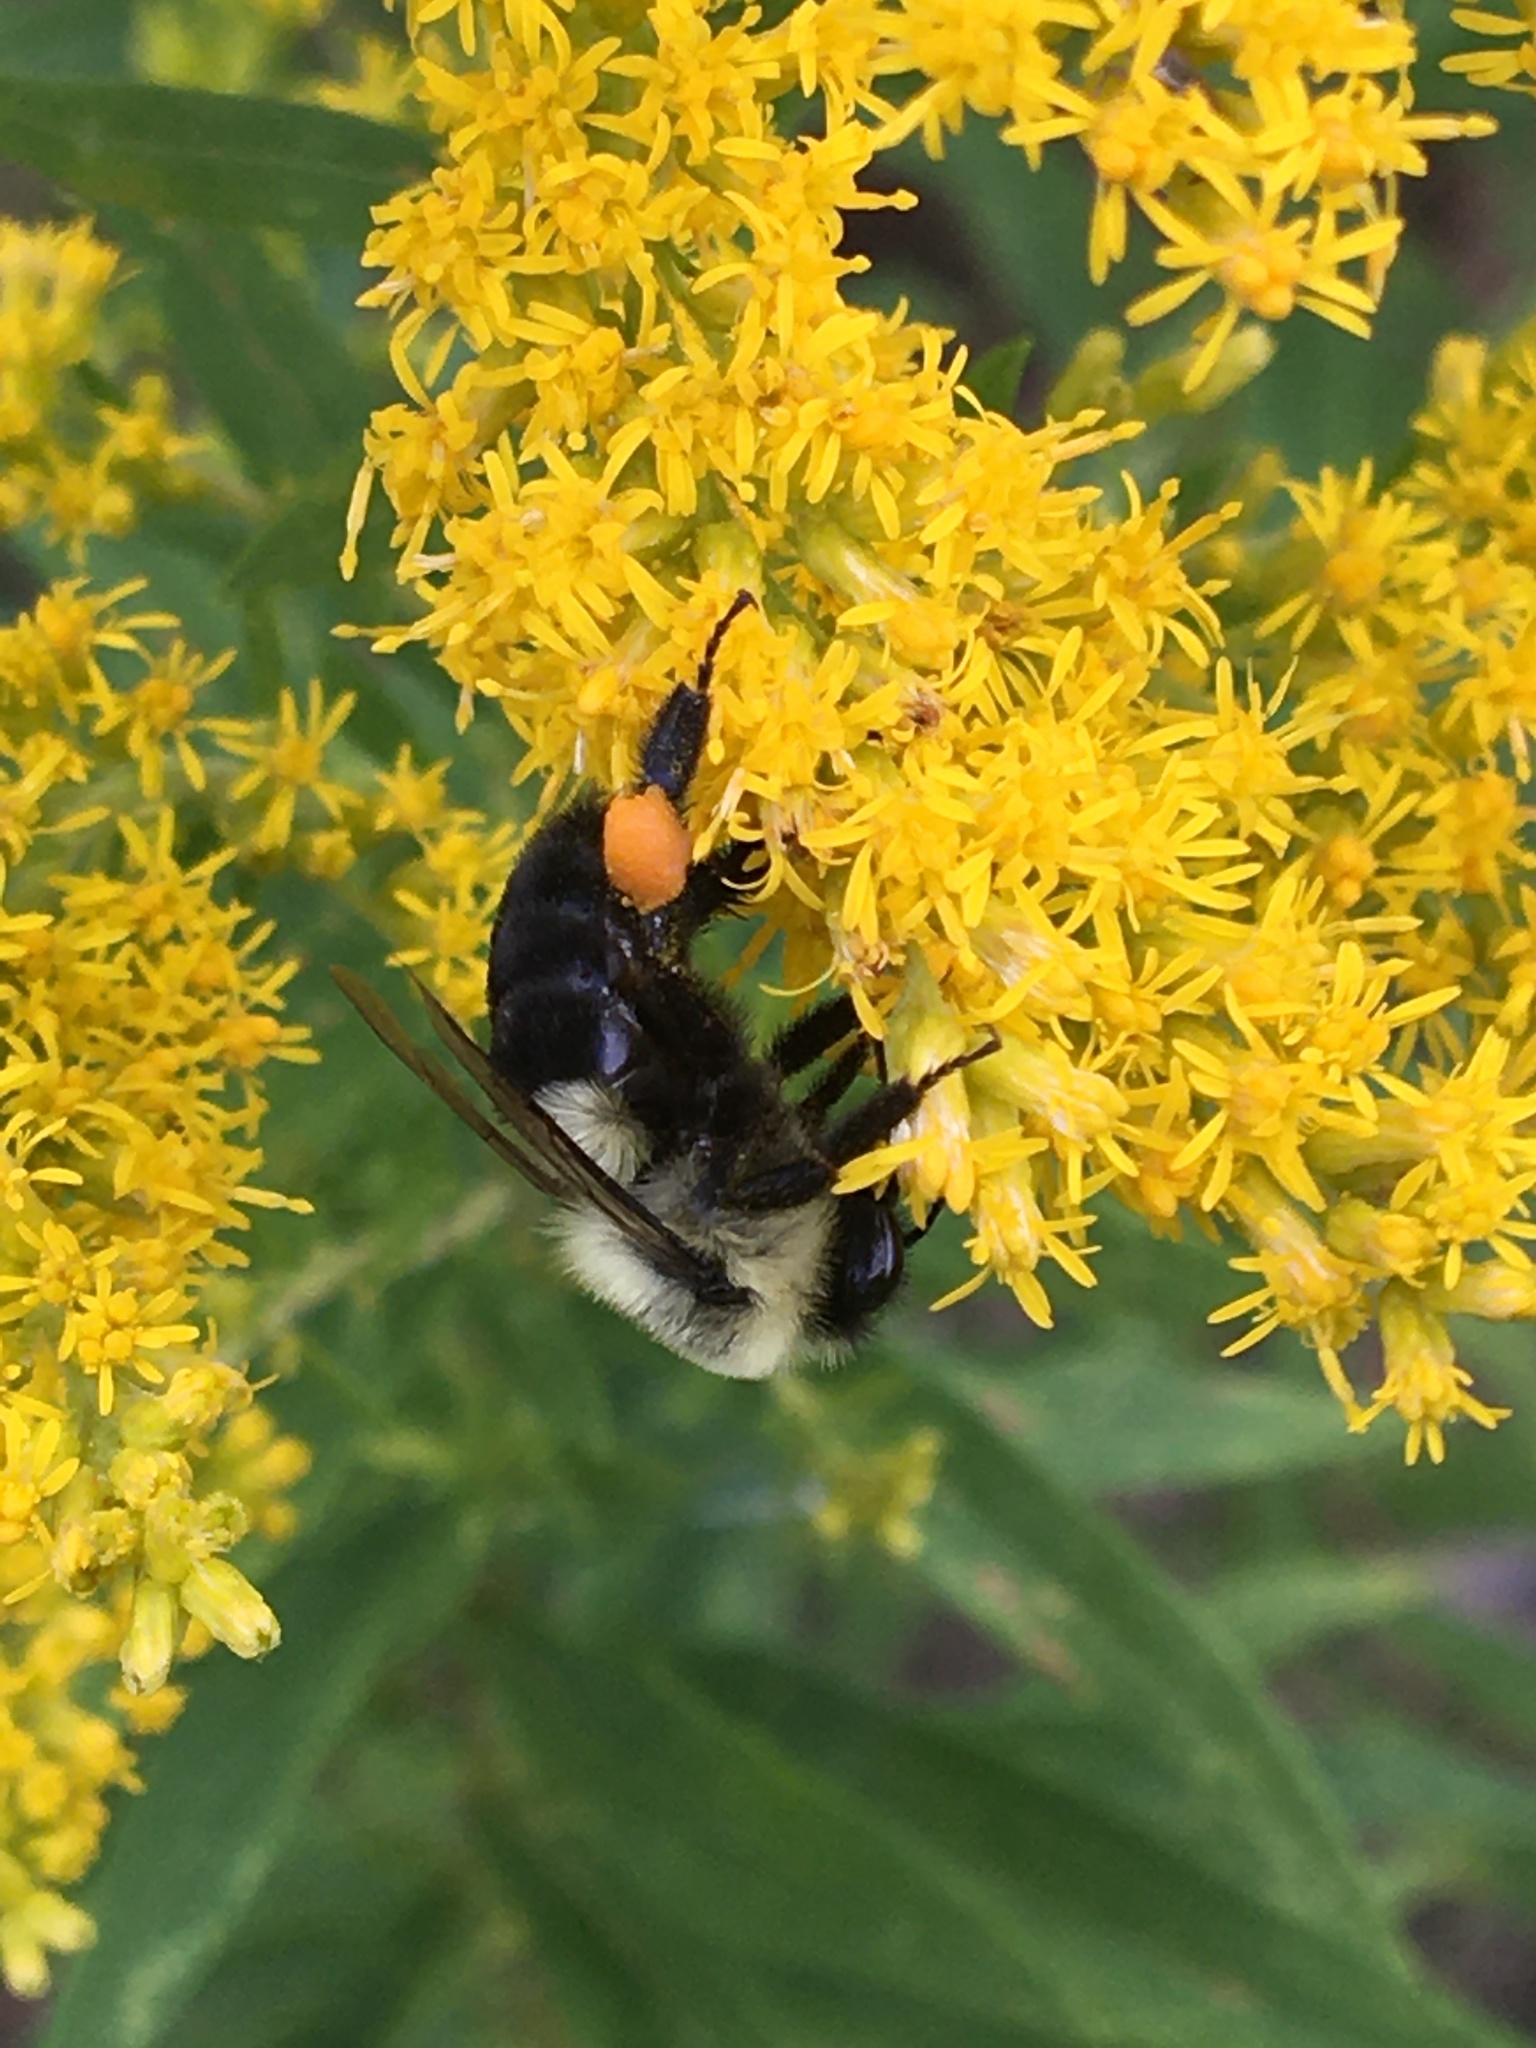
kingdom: Animalia
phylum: Arthropoda
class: Insecta
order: Hymenoptera
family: Apidae
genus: Bombus
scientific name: Bombus impatiens
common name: Common eastern bumble bee
